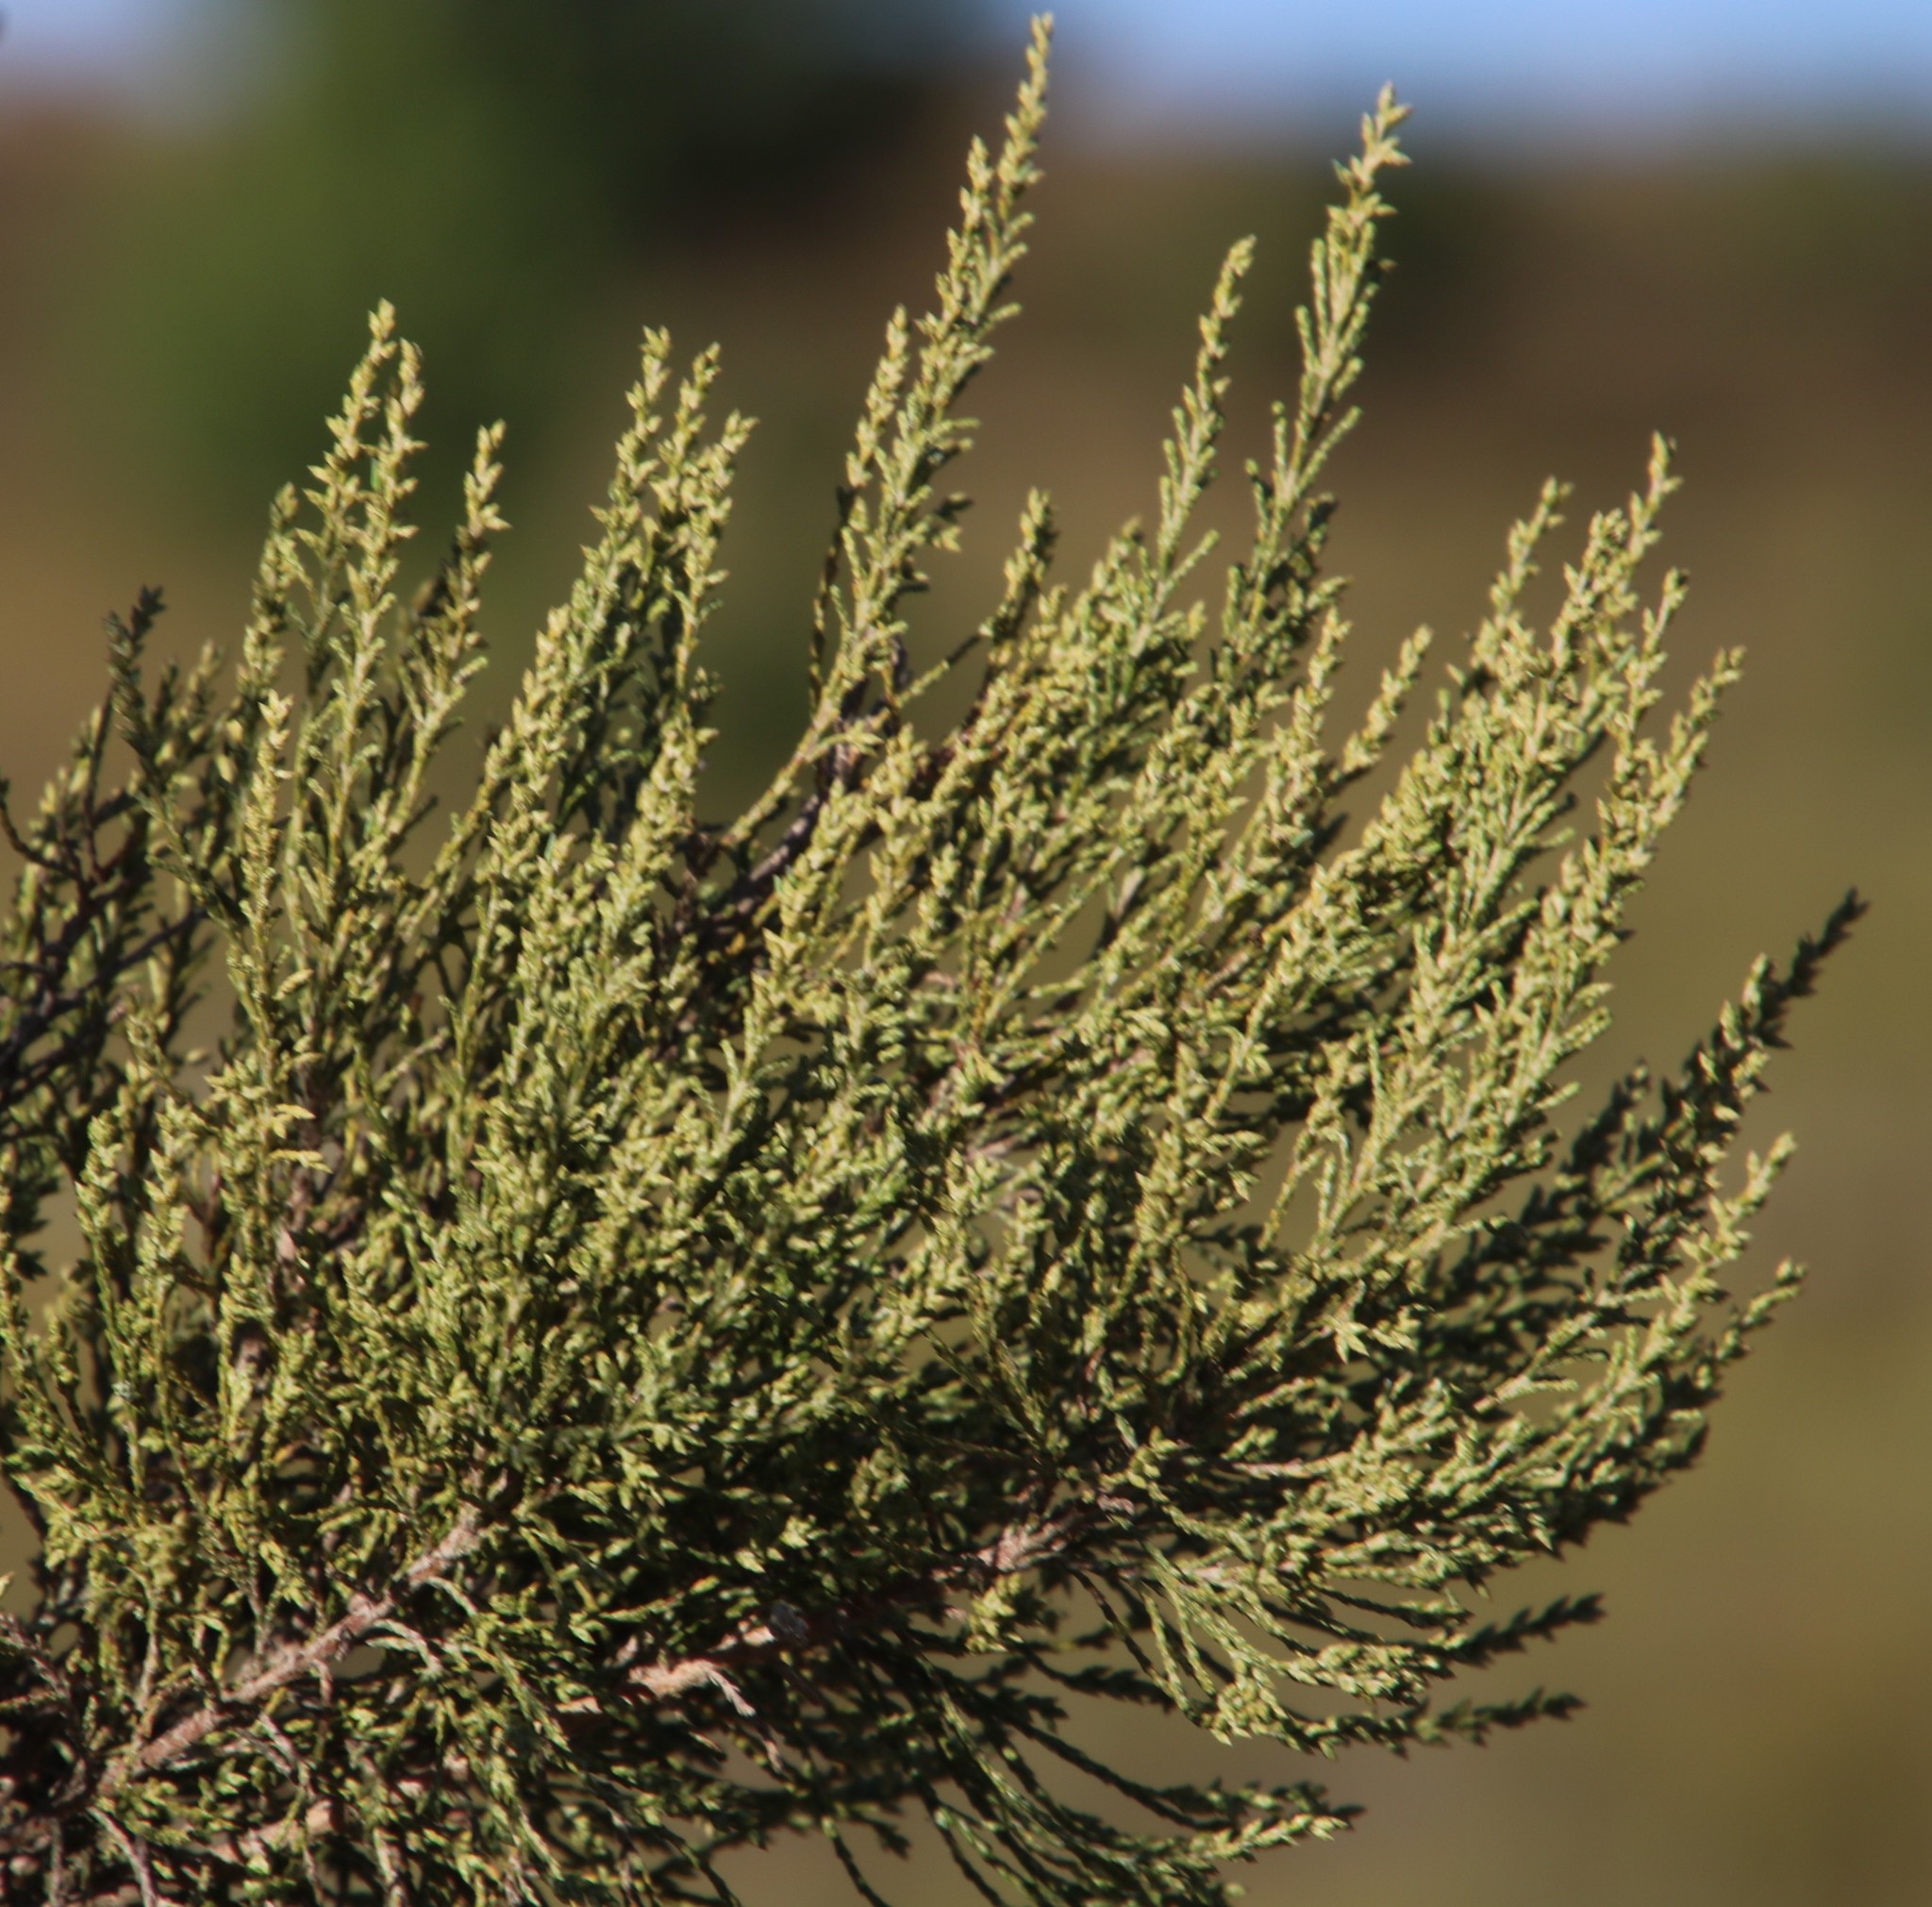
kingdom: Plantae
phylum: Tracheophyta
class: Magnoliopsida
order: Asterales
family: Asteraceae
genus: Dicerothamnus
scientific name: Dicerothamnus rhinocerotis
